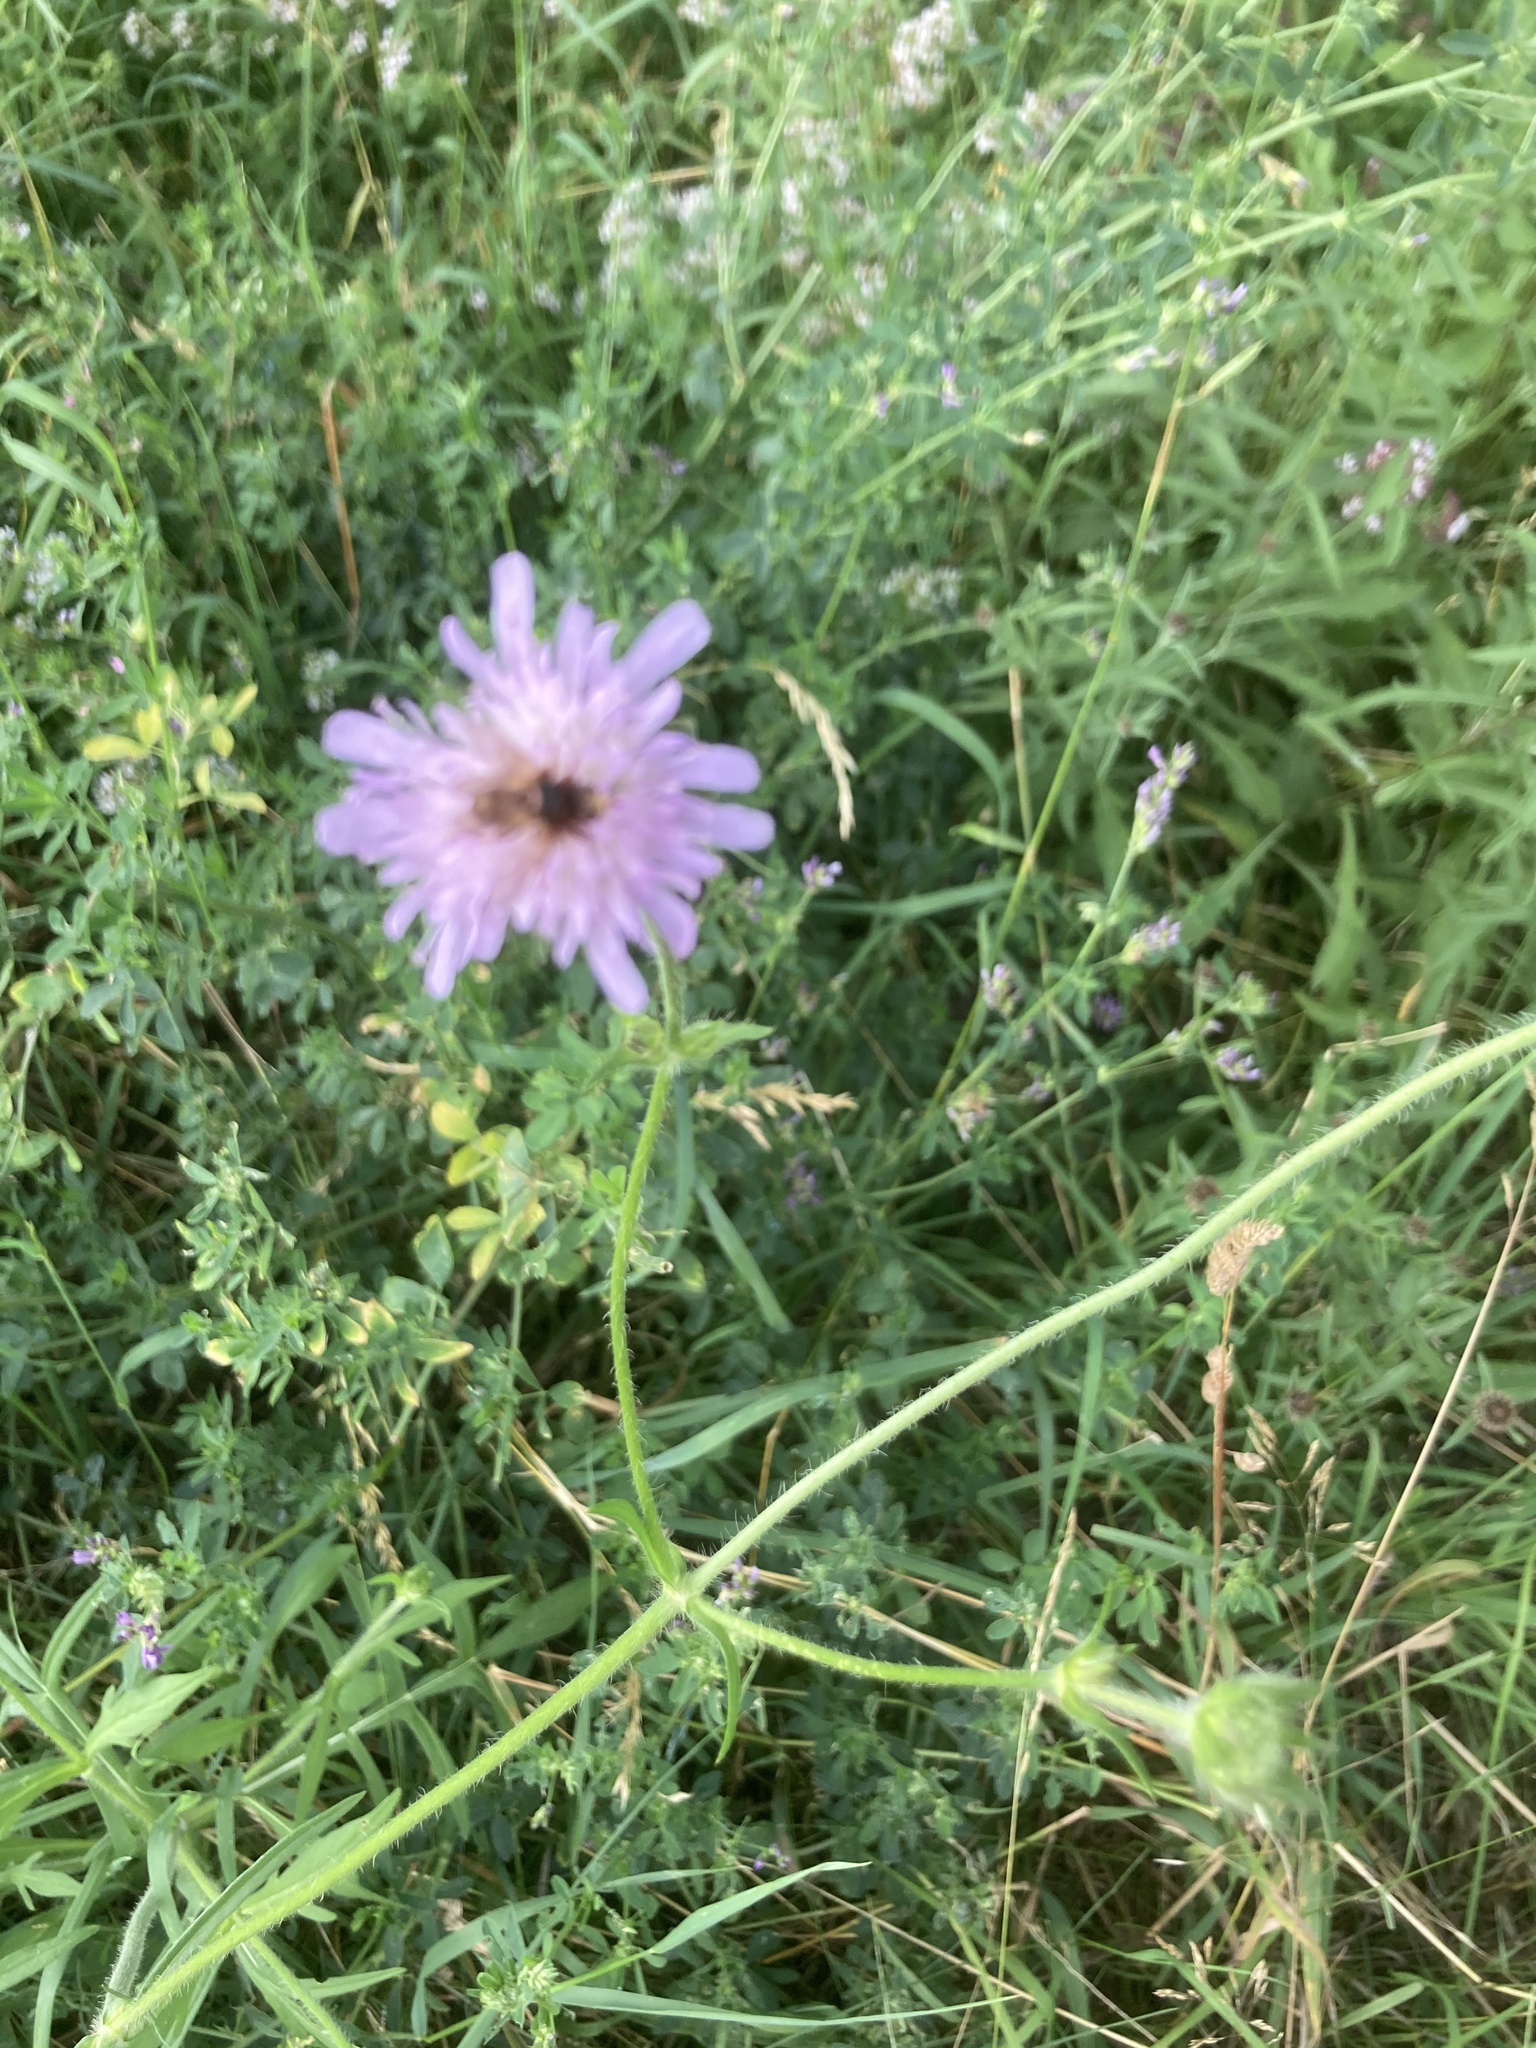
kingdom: Animalia
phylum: Arthropoda
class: Insecta
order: Diptera
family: Conopidae
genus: Sicus
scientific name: Sicus ferrugineus
